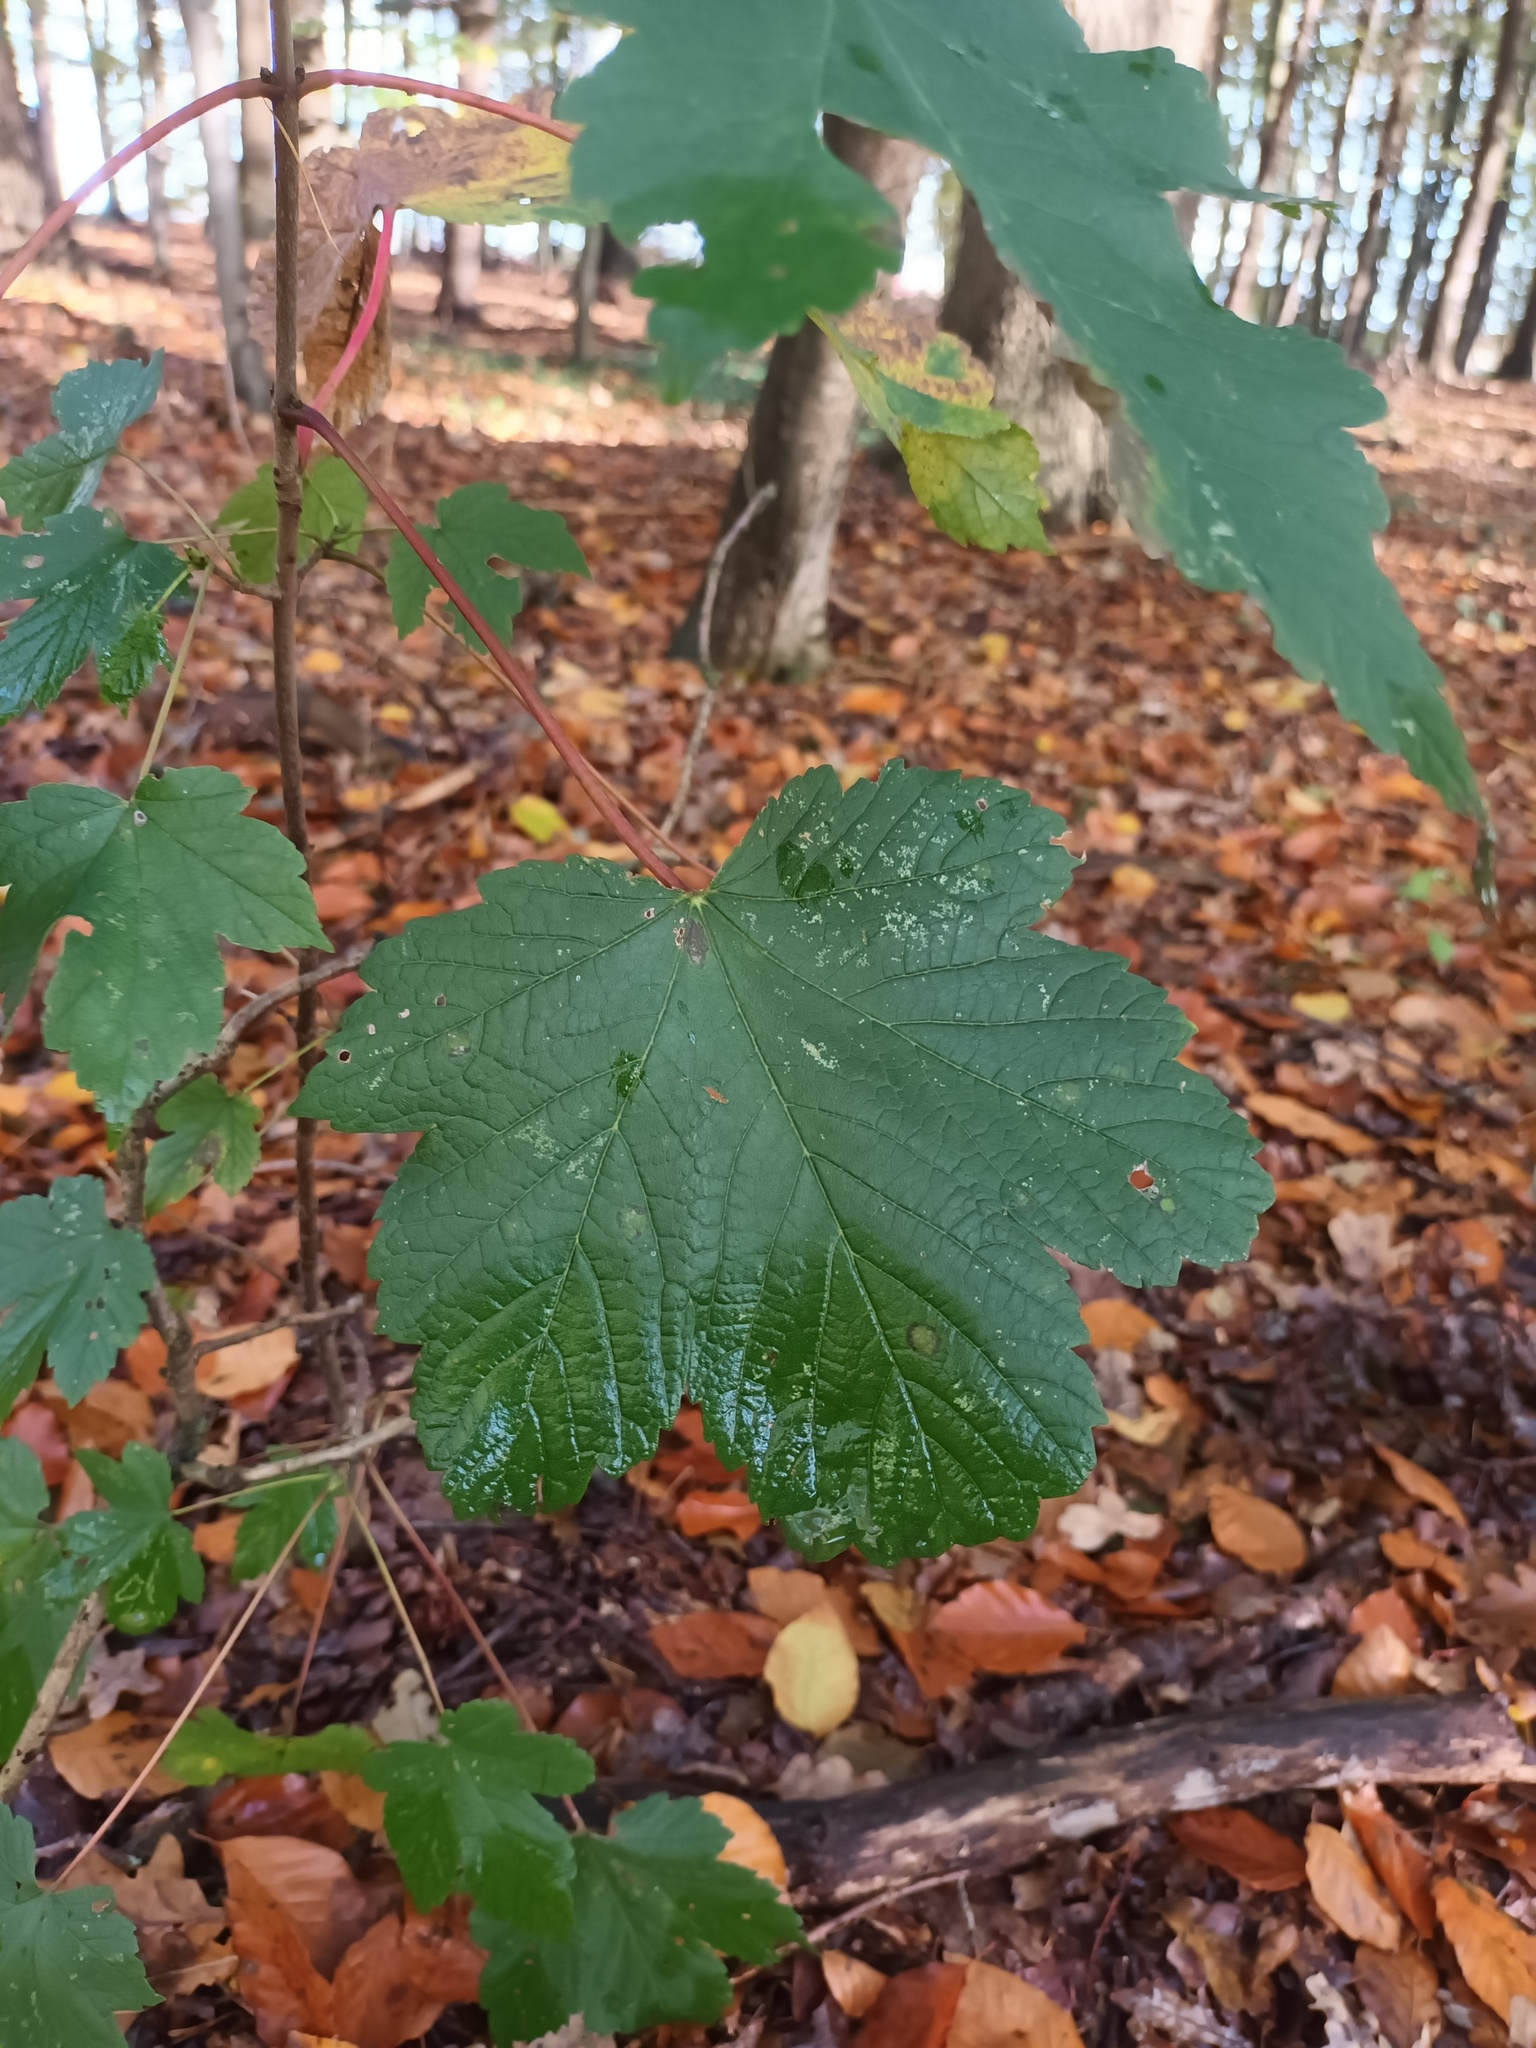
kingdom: Plantae
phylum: Tracheophyta
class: Magnoliopsida
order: Sapindales
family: Sapindaceae
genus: Acer
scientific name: Acer pseudoplatanus
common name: Sycamore
